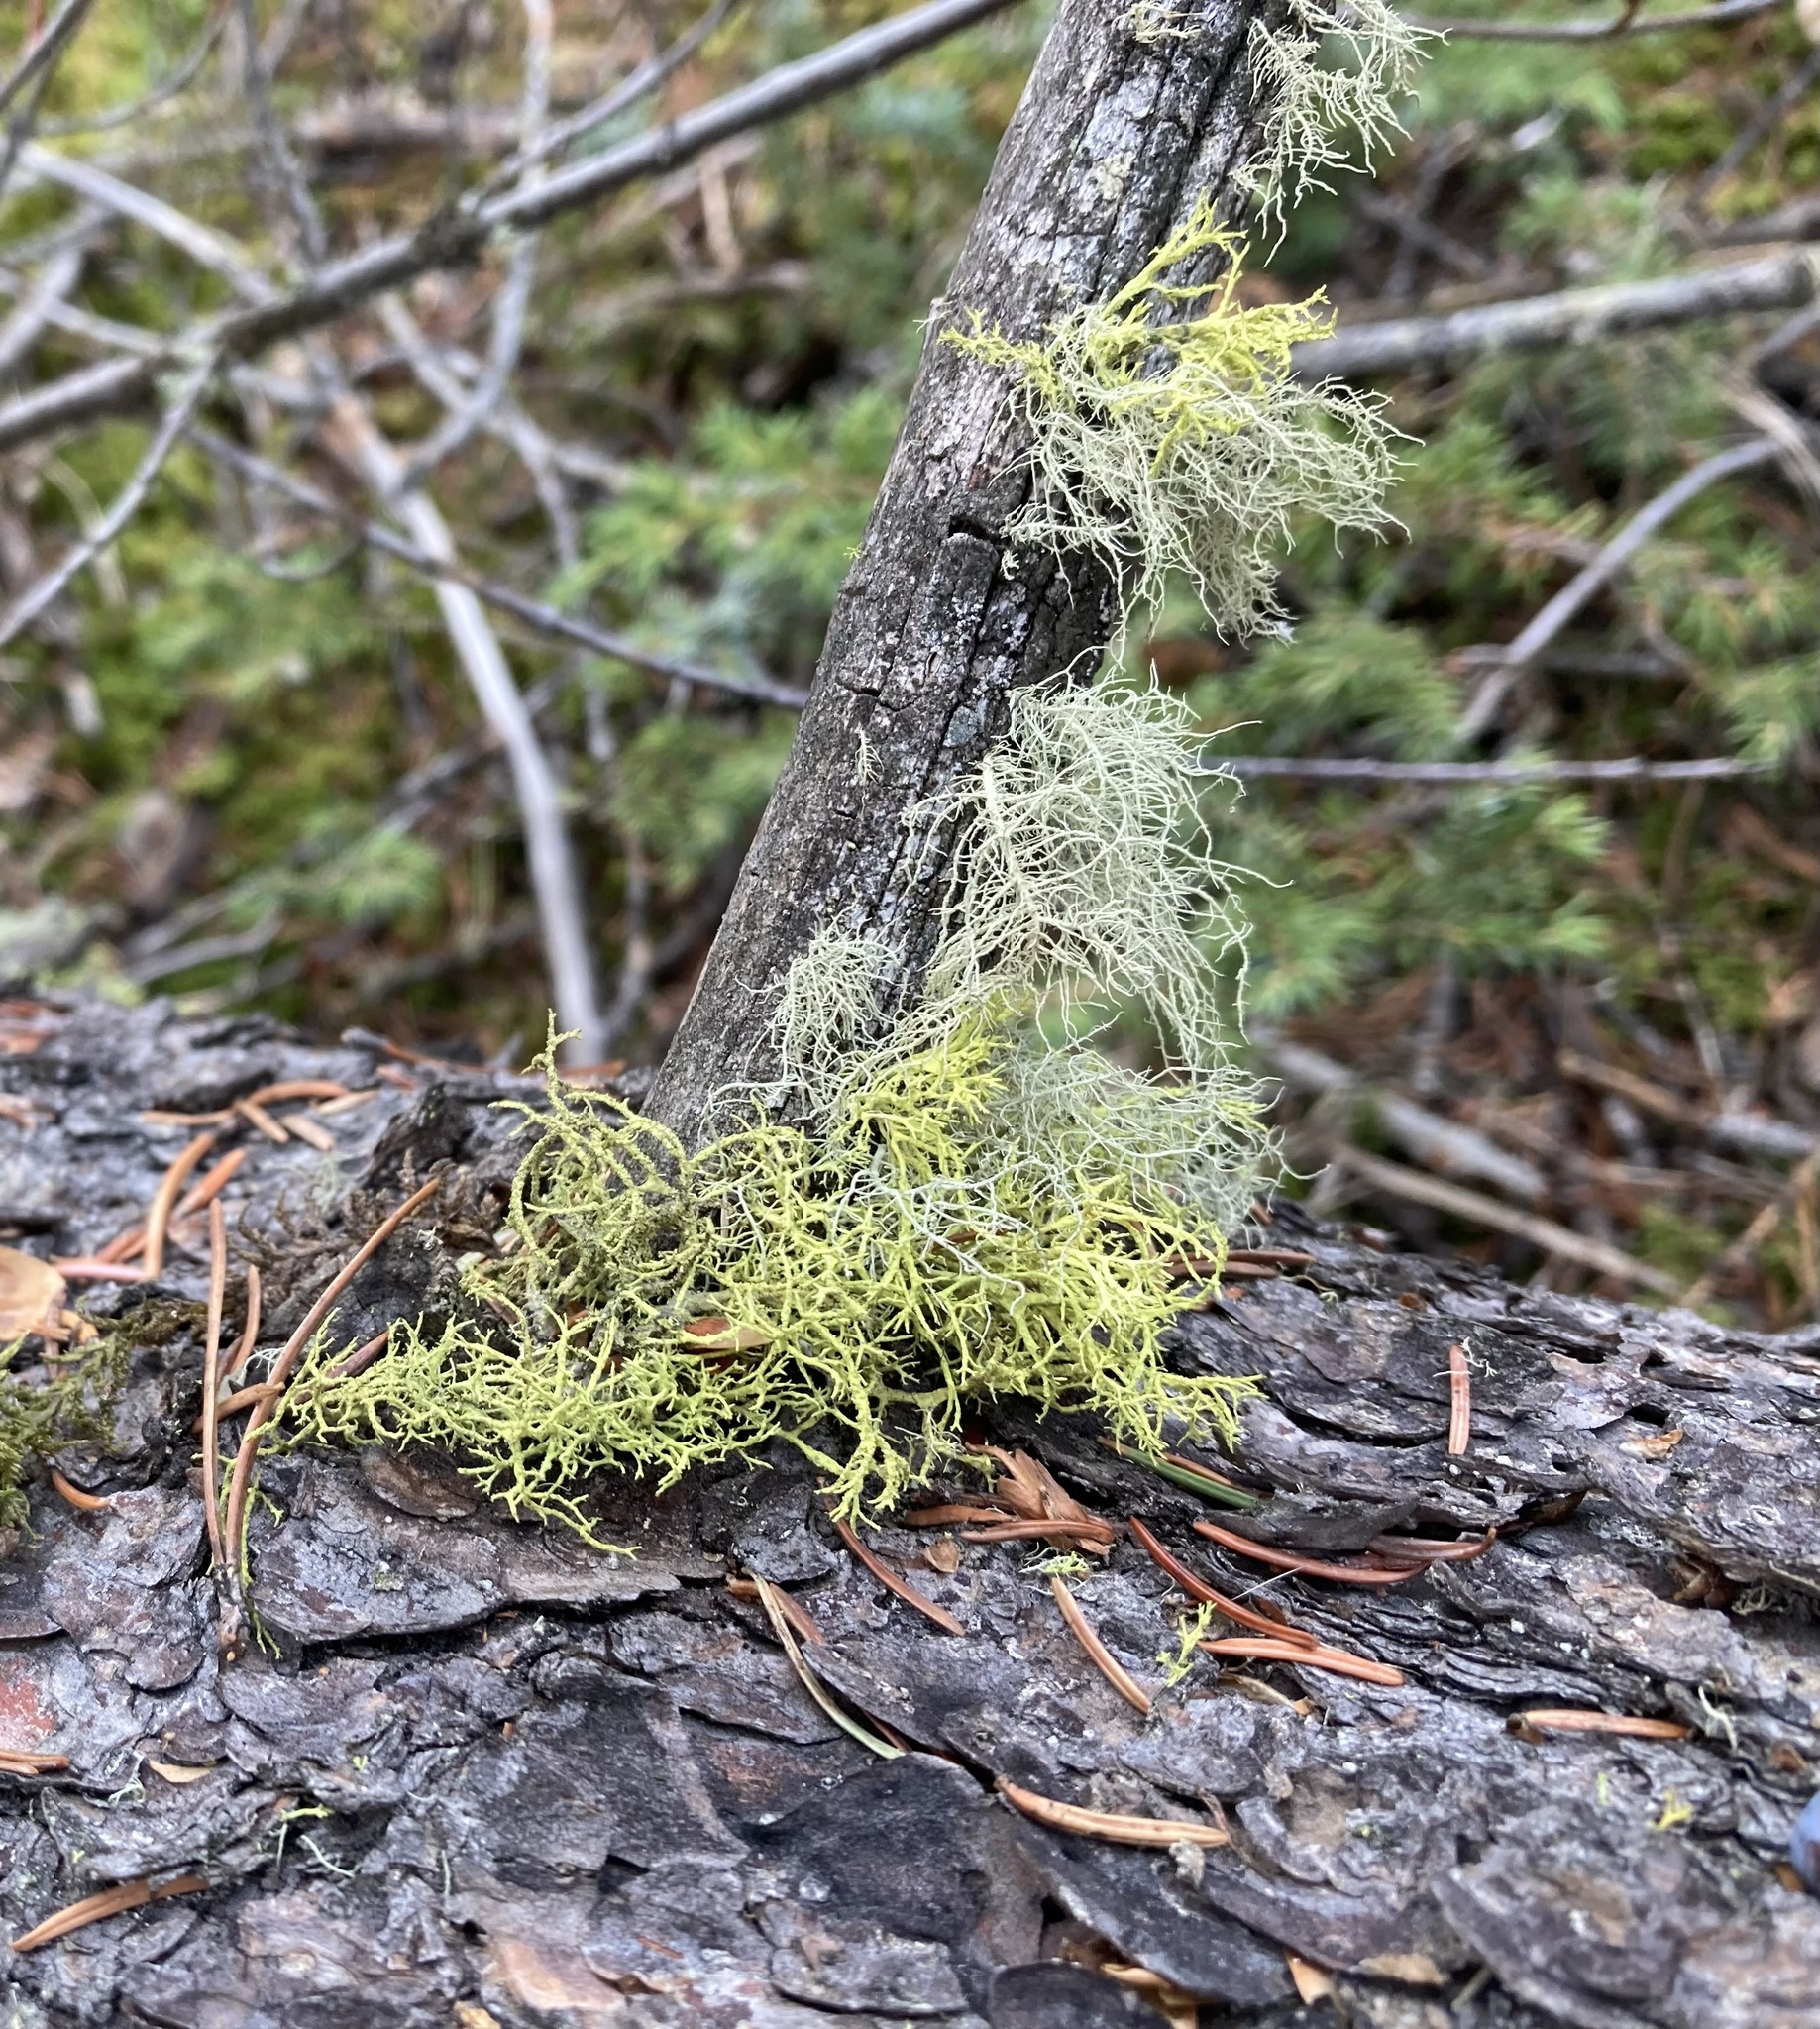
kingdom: Fungi
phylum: Ascomycota
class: Lecanoromycetes
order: Lecanorales
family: Parmeliaceae
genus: Letharia
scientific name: Letharia vulpina
